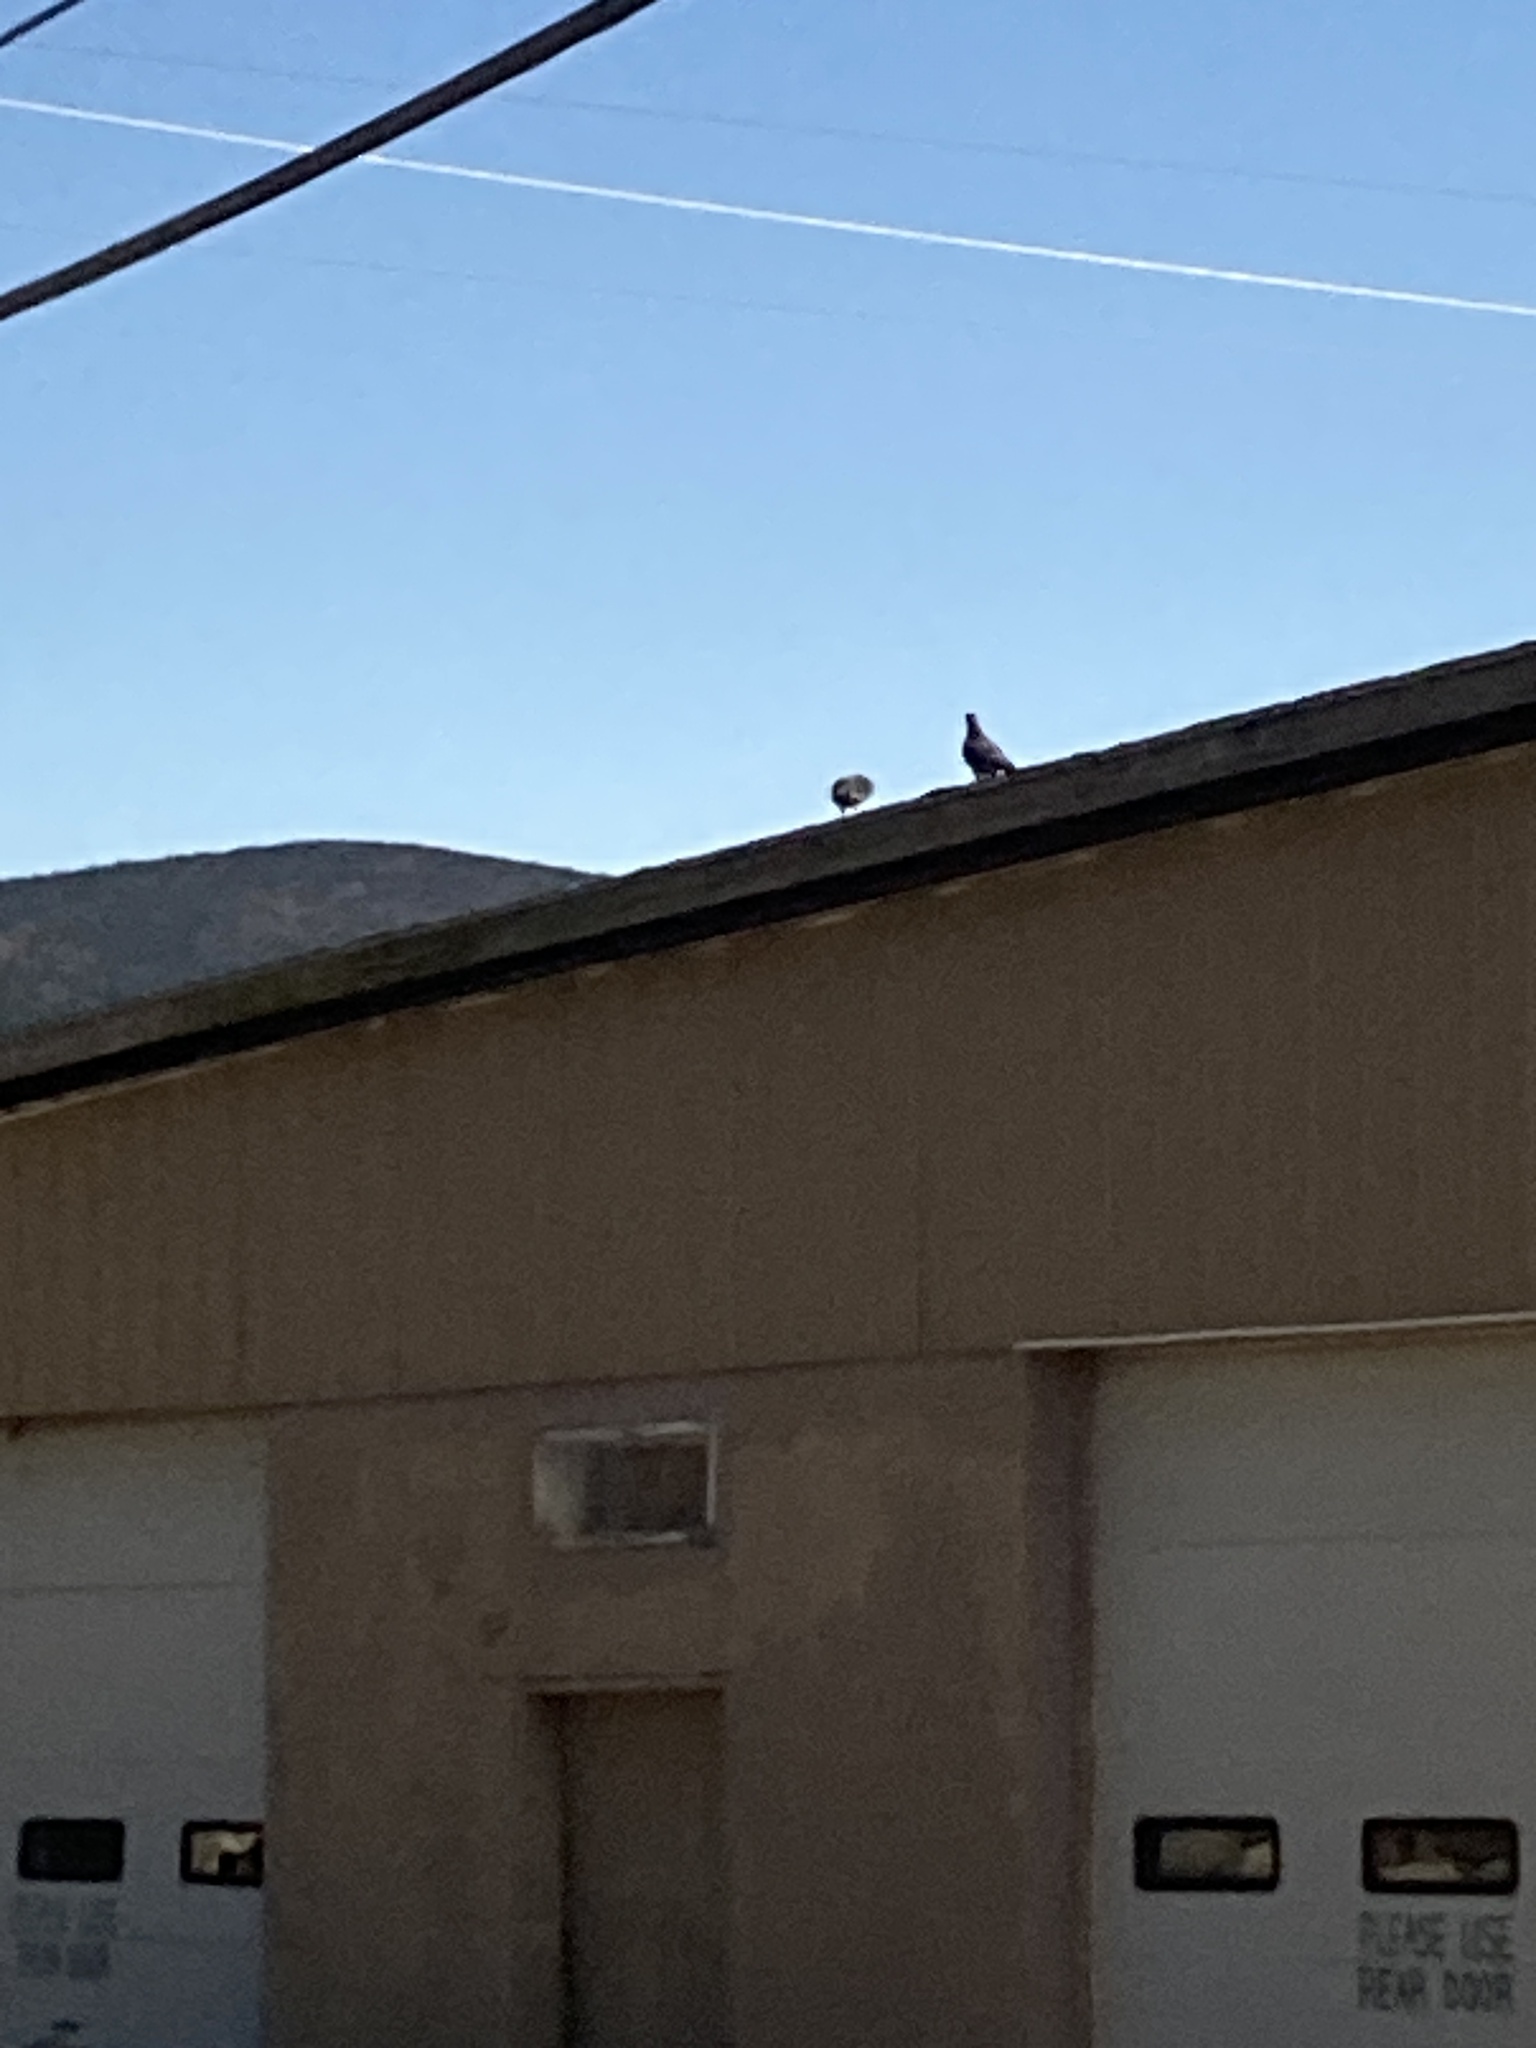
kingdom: Animalia
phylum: Chordata
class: Aves
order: Columbiformes
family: Columbidae
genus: Columba
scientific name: Columba livia
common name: Rock pigeon
